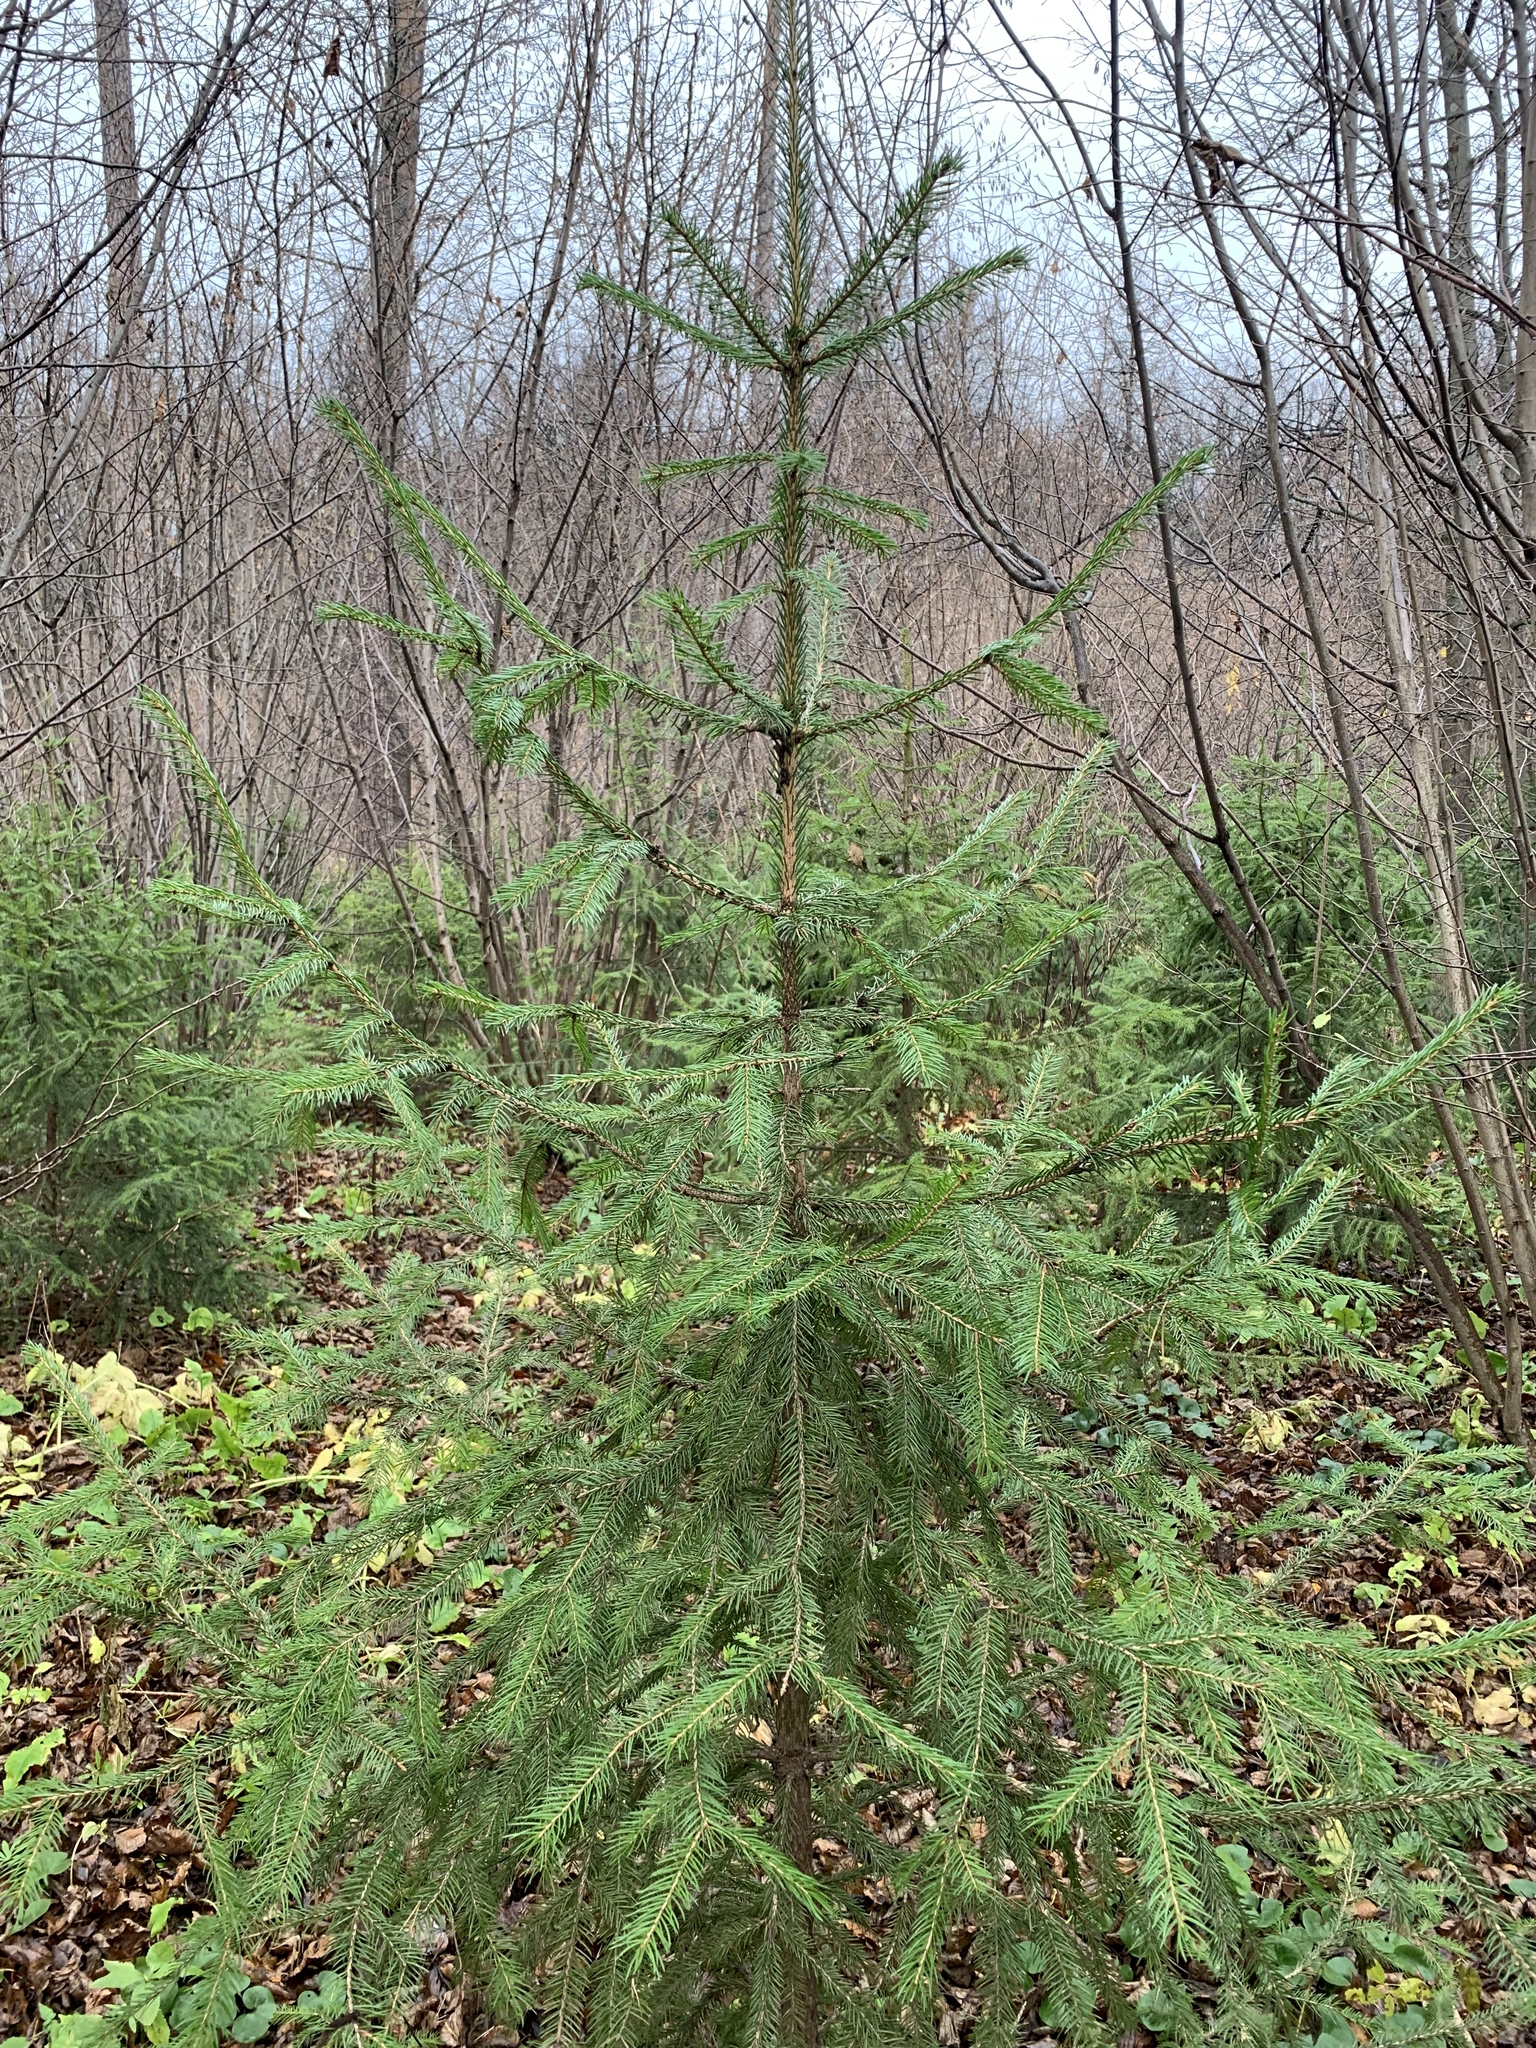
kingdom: Plantae
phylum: Tracheophyta
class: Pinopsida
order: Pinales
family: Pinaceae
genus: Picea
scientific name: Picea abies
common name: Norway spruce
